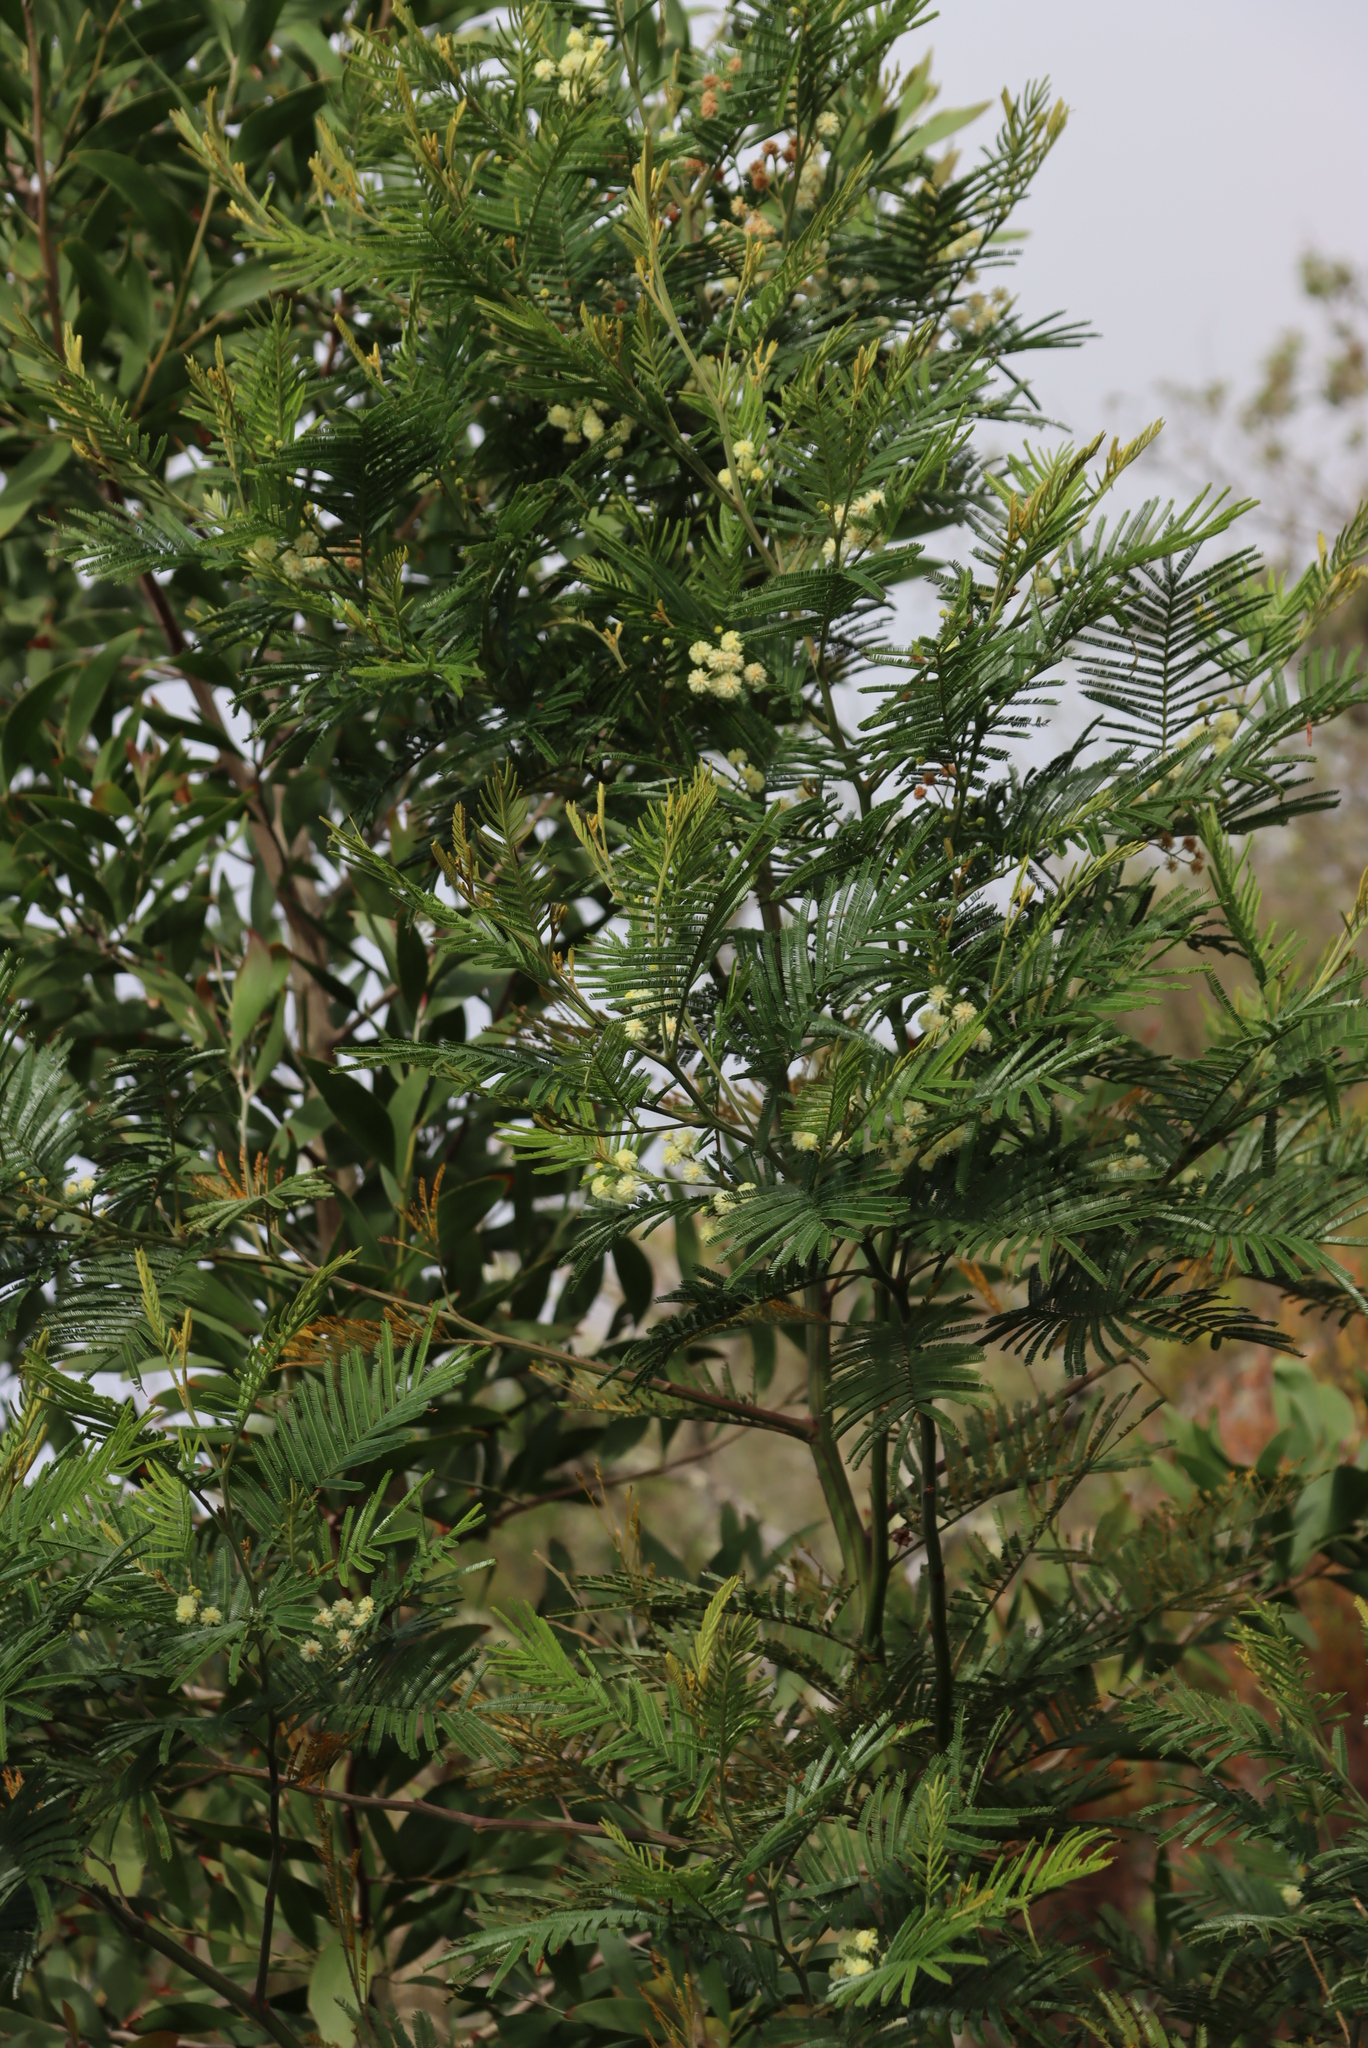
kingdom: Plantae
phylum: Tracheophyta
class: Magnoliopsida
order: Fabales
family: Fabaceae
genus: Acacia
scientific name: Acacia mearnsii
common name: Black wattle
